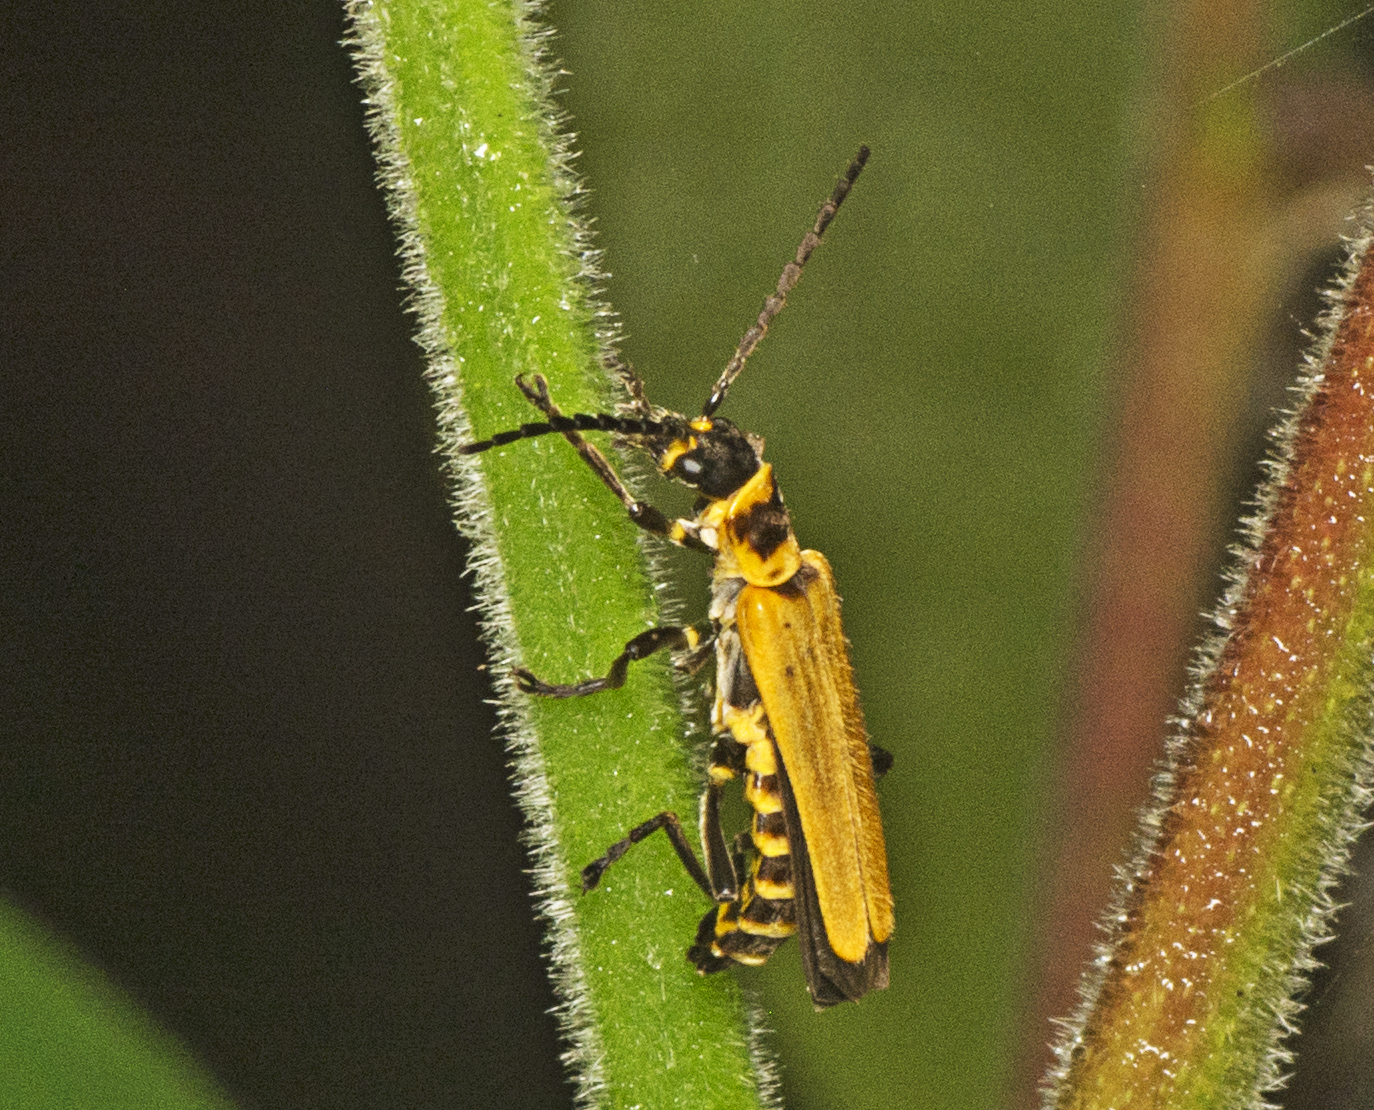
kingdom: Animalia
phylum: Arthropoda
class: Insecta
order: Coleoptera
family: Cantharidae
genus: Chauliognathus
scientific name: Chauliognathus
